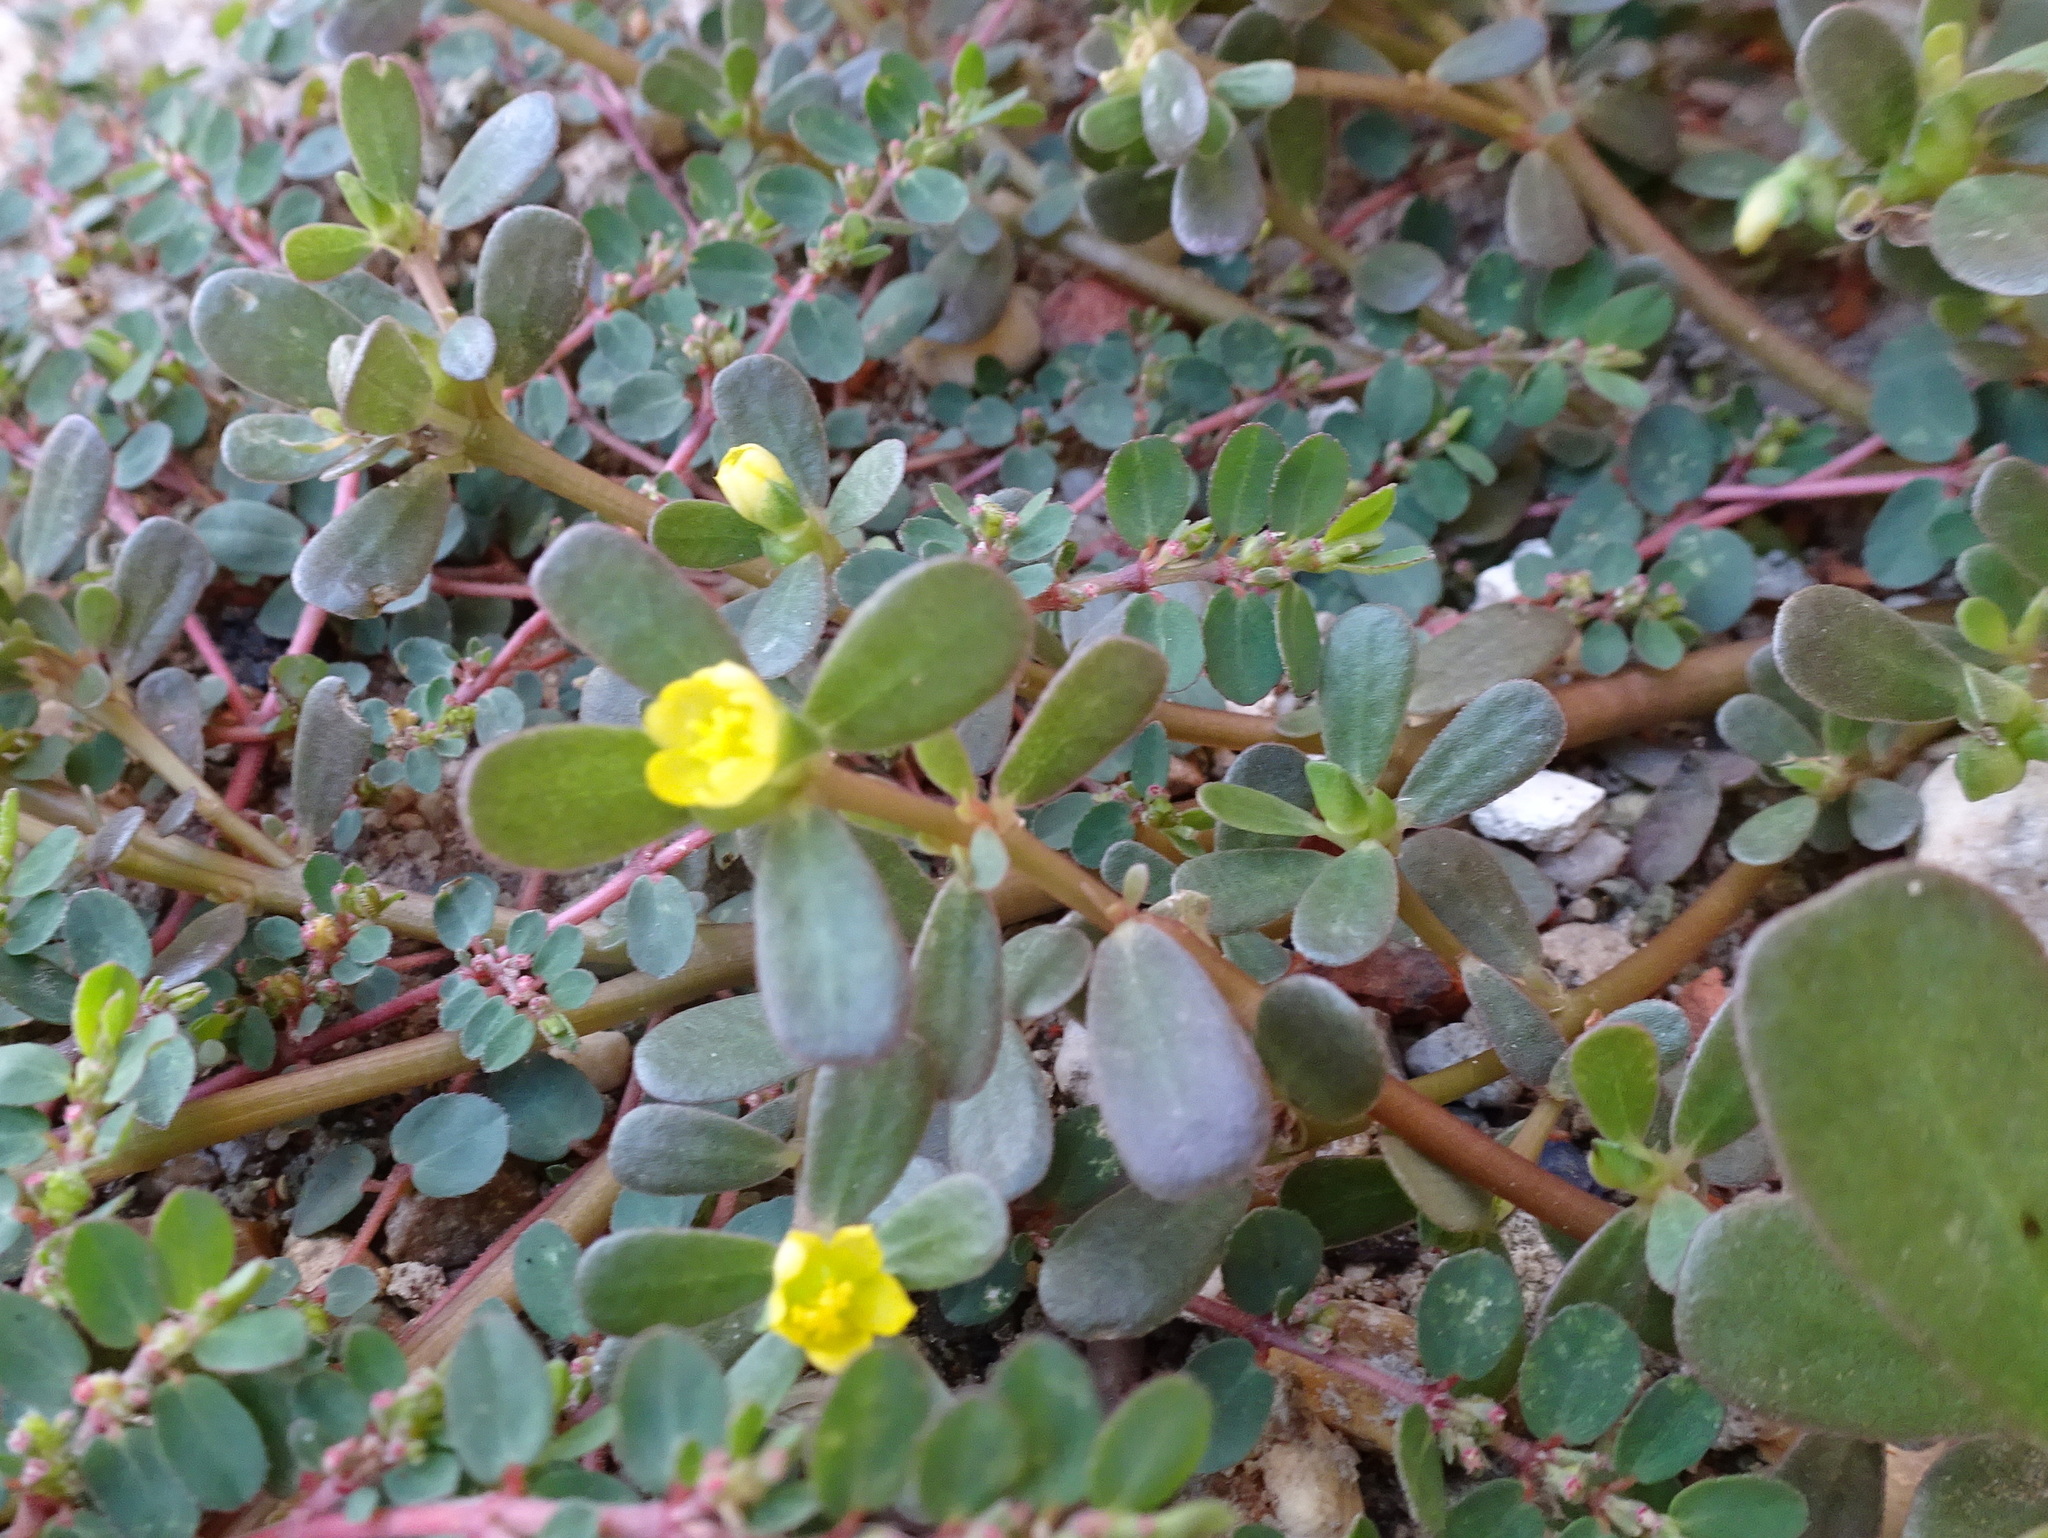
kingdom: Plantae
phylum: Tracheophyta
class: Magnoliopsida
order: Caryophyllales
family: Portulacaceae
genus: Portulaca
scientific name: Portulaca oleracea
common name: Common purslane
